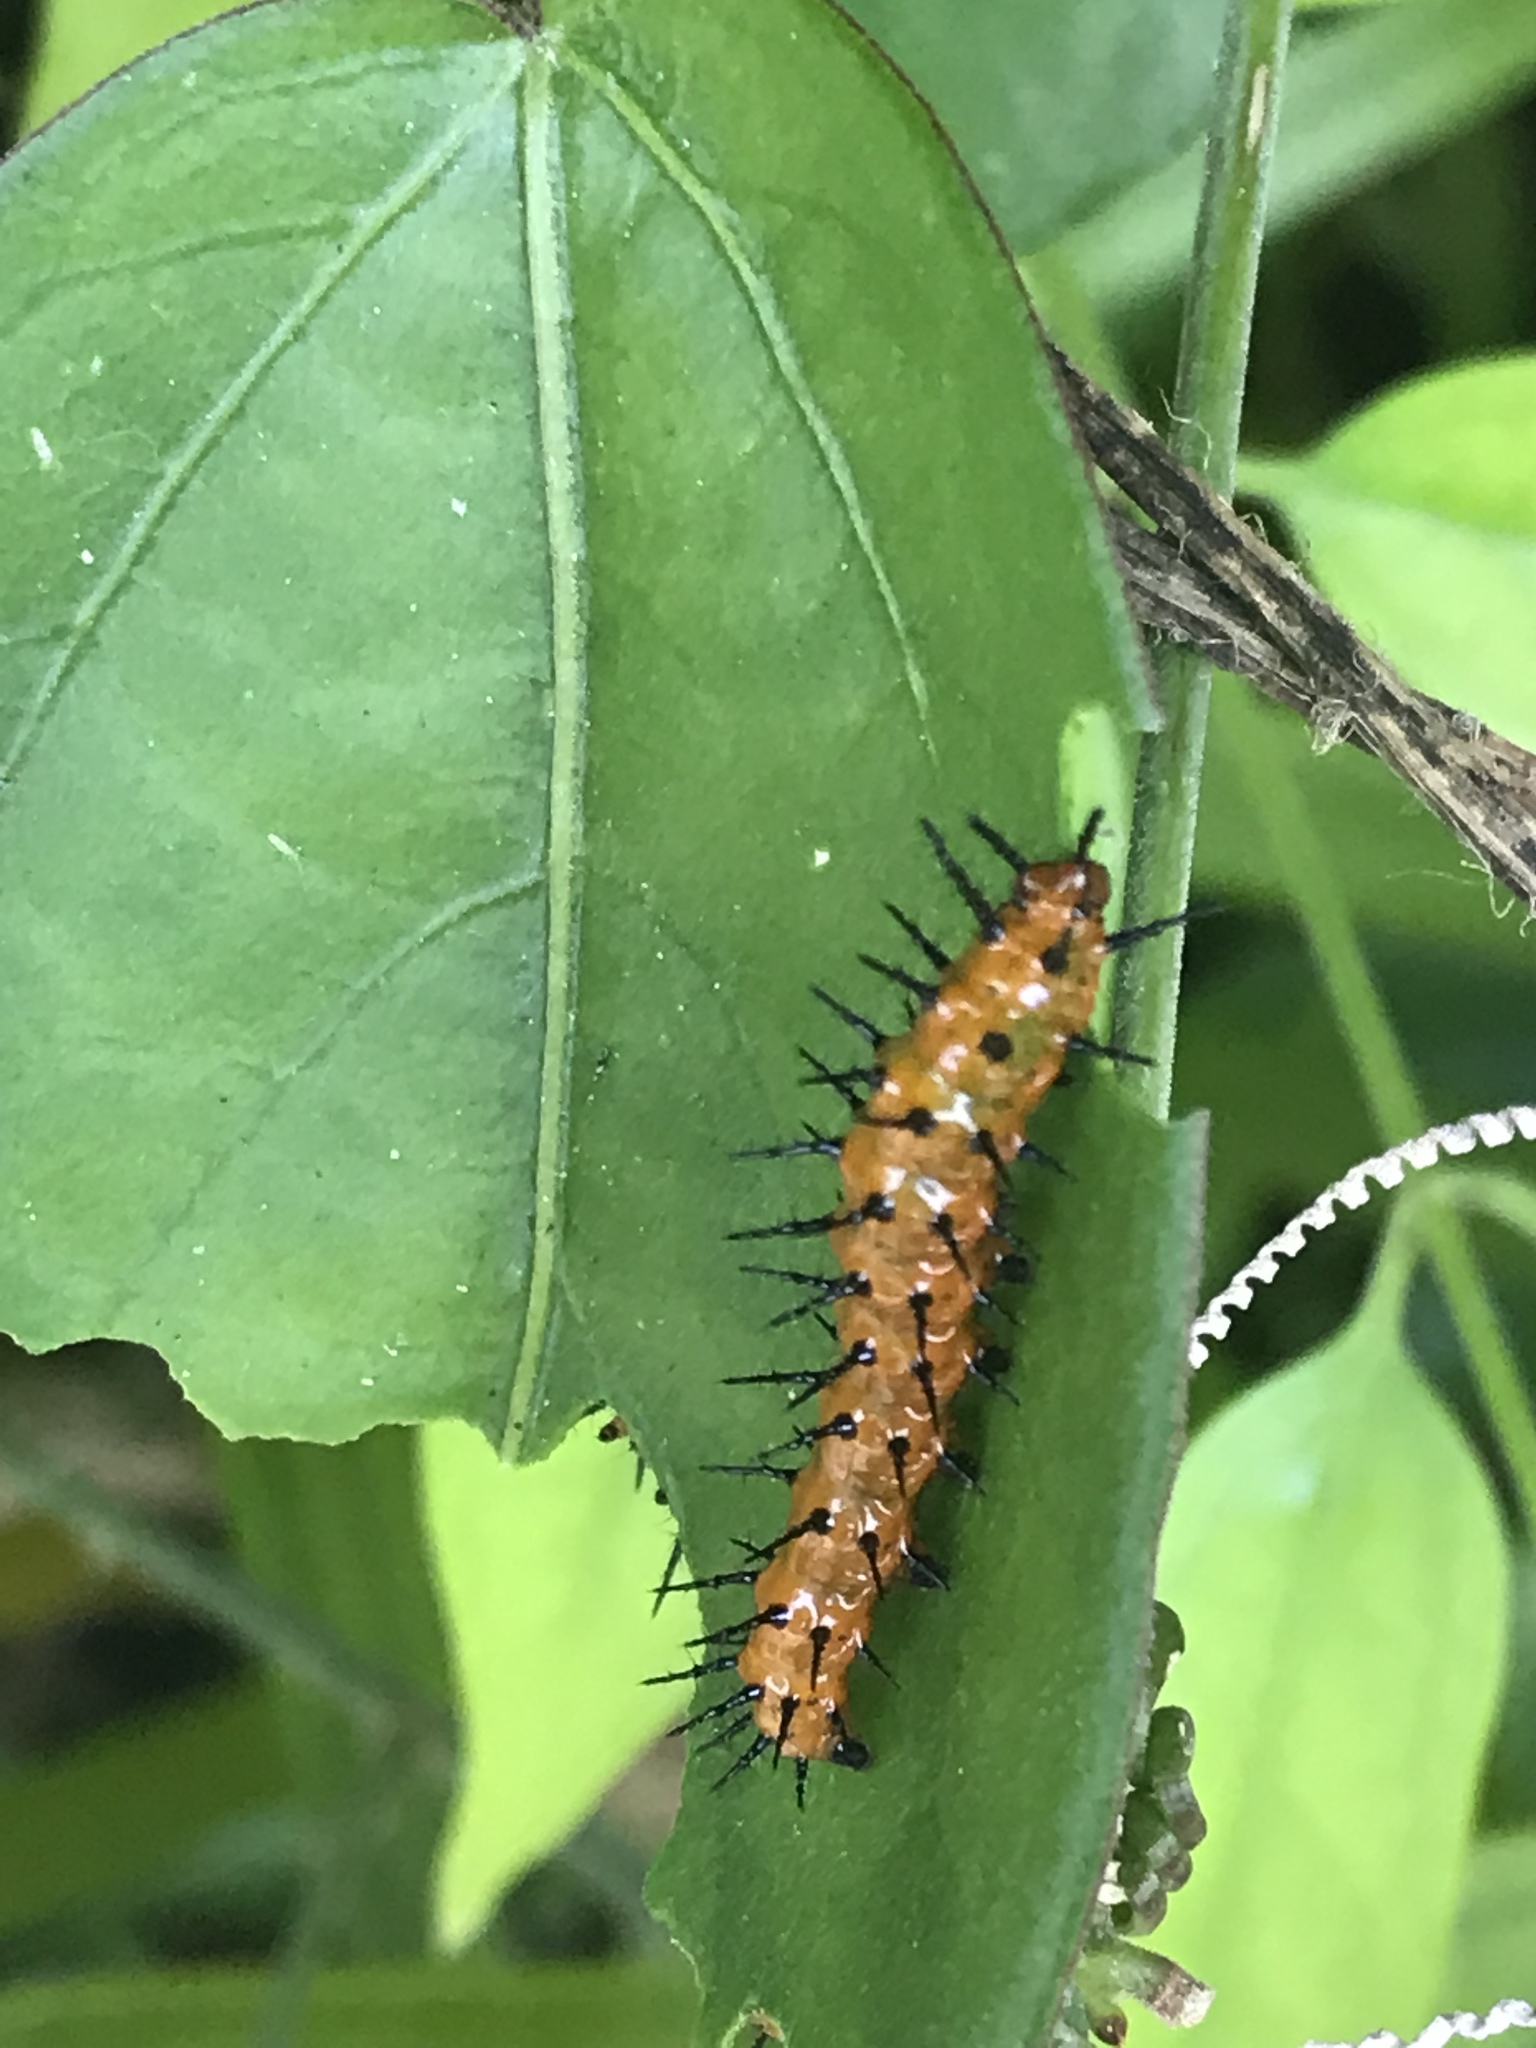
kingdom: Animalia
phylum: Arthropoda
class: Insecta
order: Lepidoptera
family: Nymphalidae
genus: Dione
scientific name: Dione vanillae
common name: Gulf fritillary
